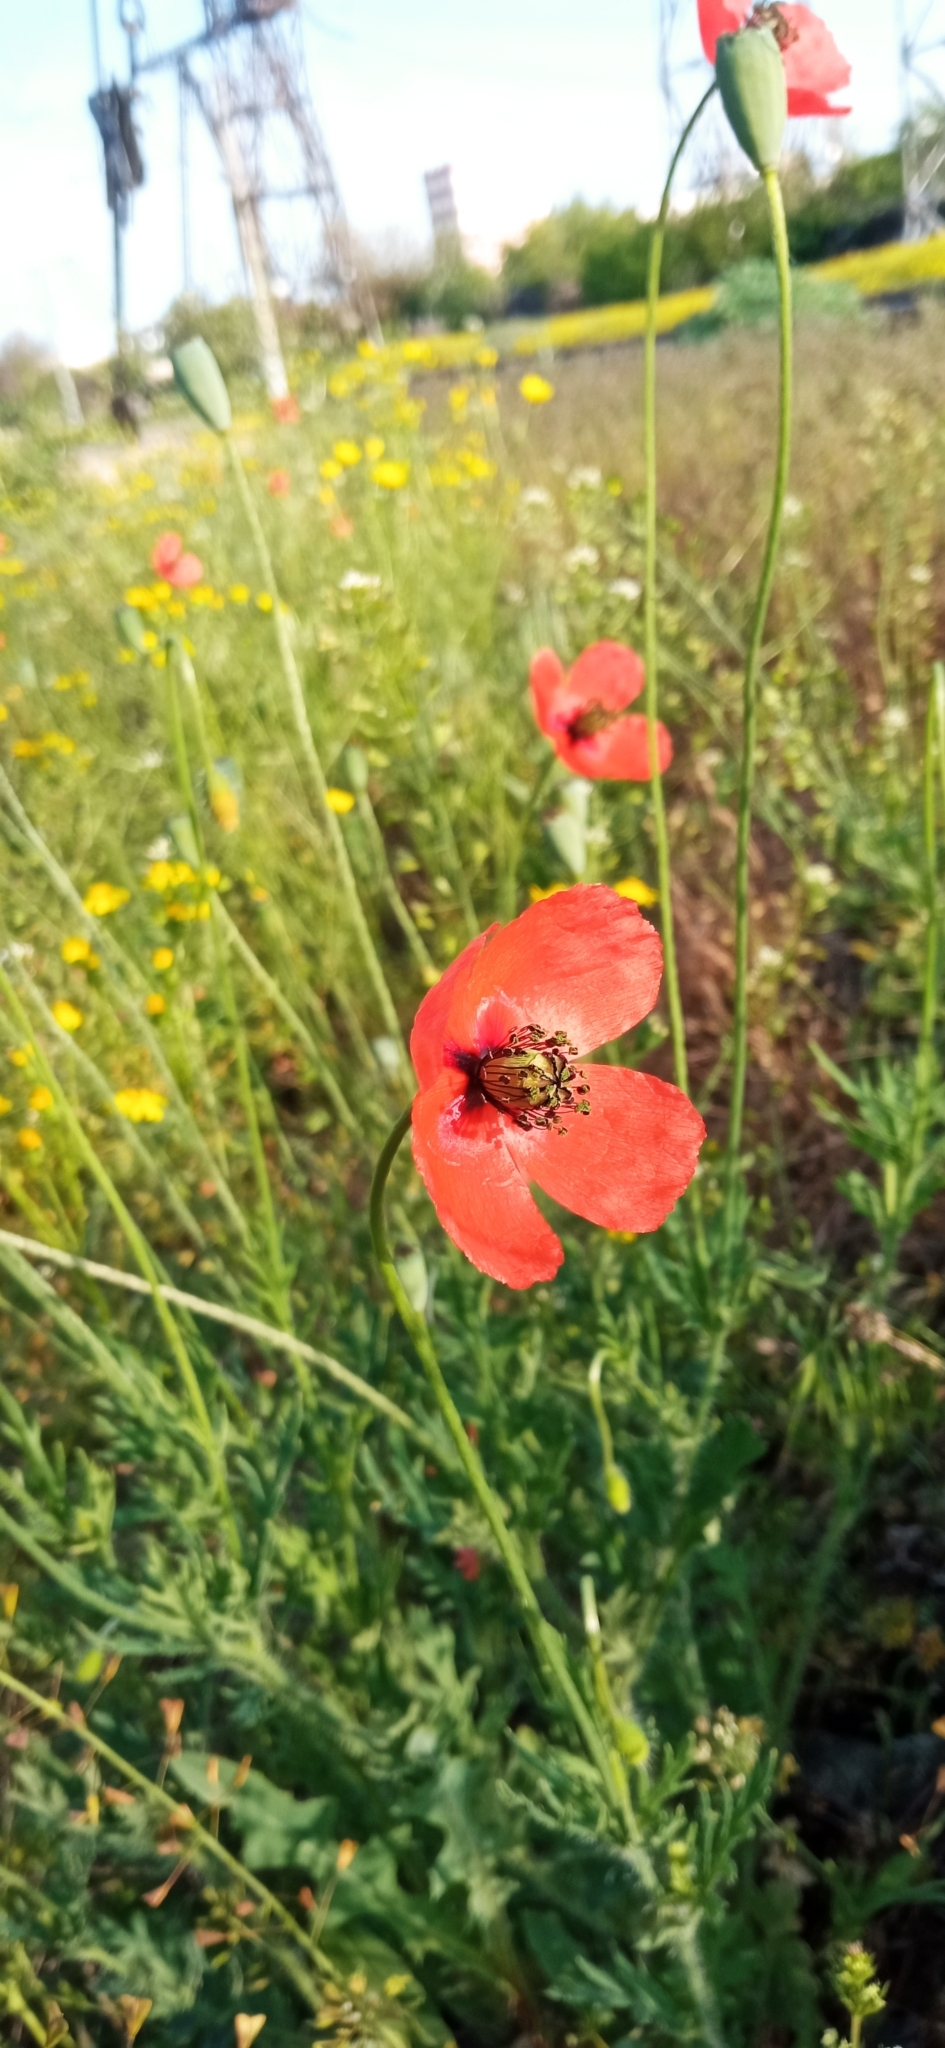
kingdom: Plantae
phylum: Tracheophyta
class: Magnoliopsida
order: Ranunculales
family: Papaveraceae
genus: Papaver
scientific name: Papaver dubium
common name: Long-headed poppy
